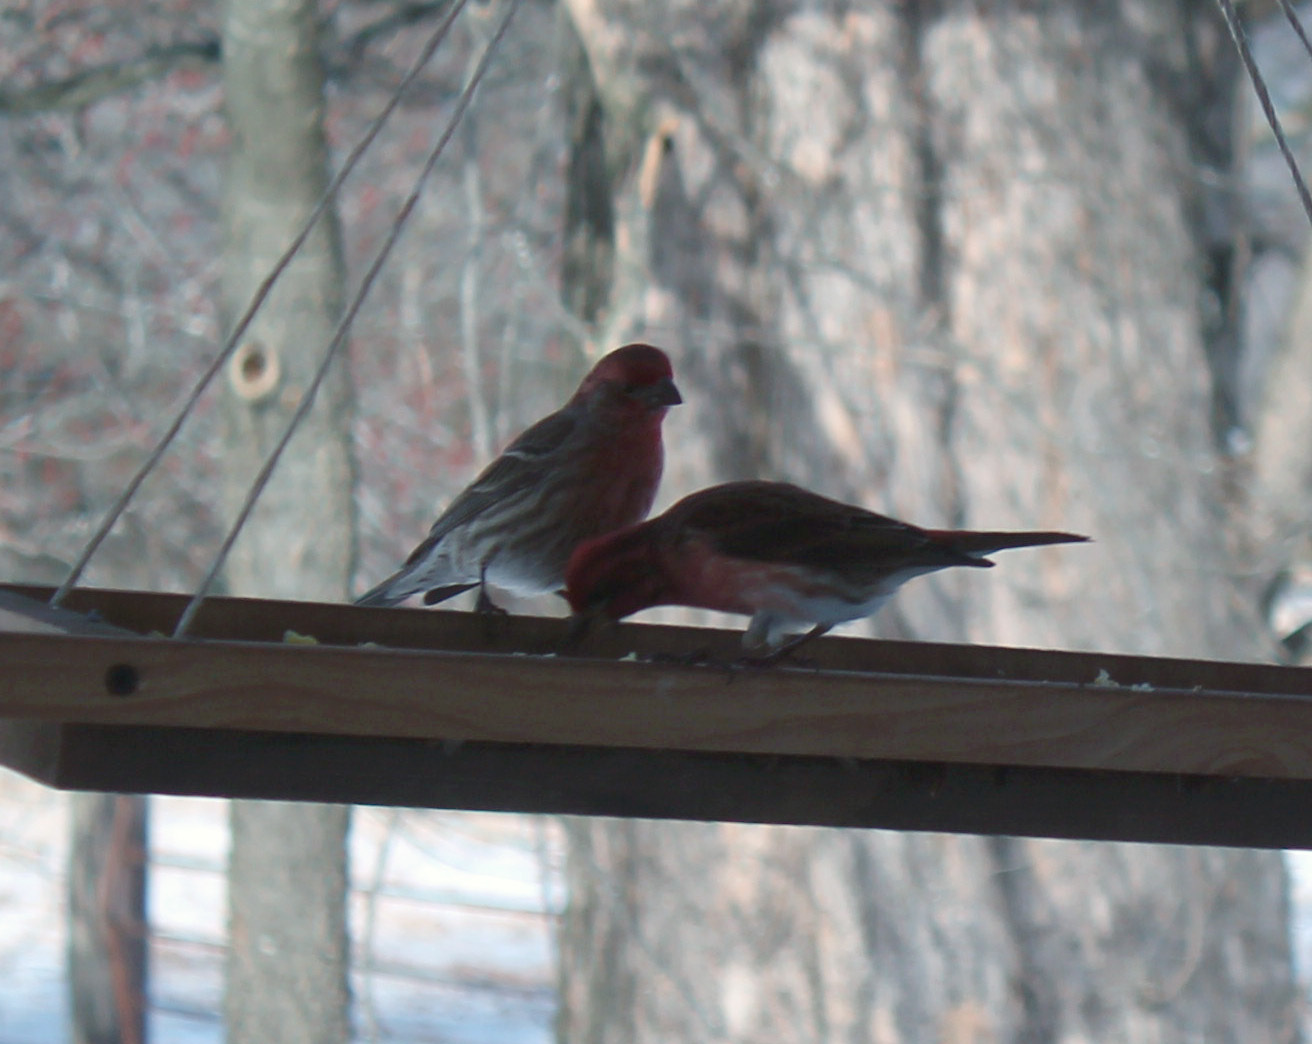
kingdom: Animalia
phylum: Chordata
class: Aves
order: Passeriformes
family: Fringillidae
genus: Haemorhous
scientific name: Haemorhous mexicanus
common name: House finch
